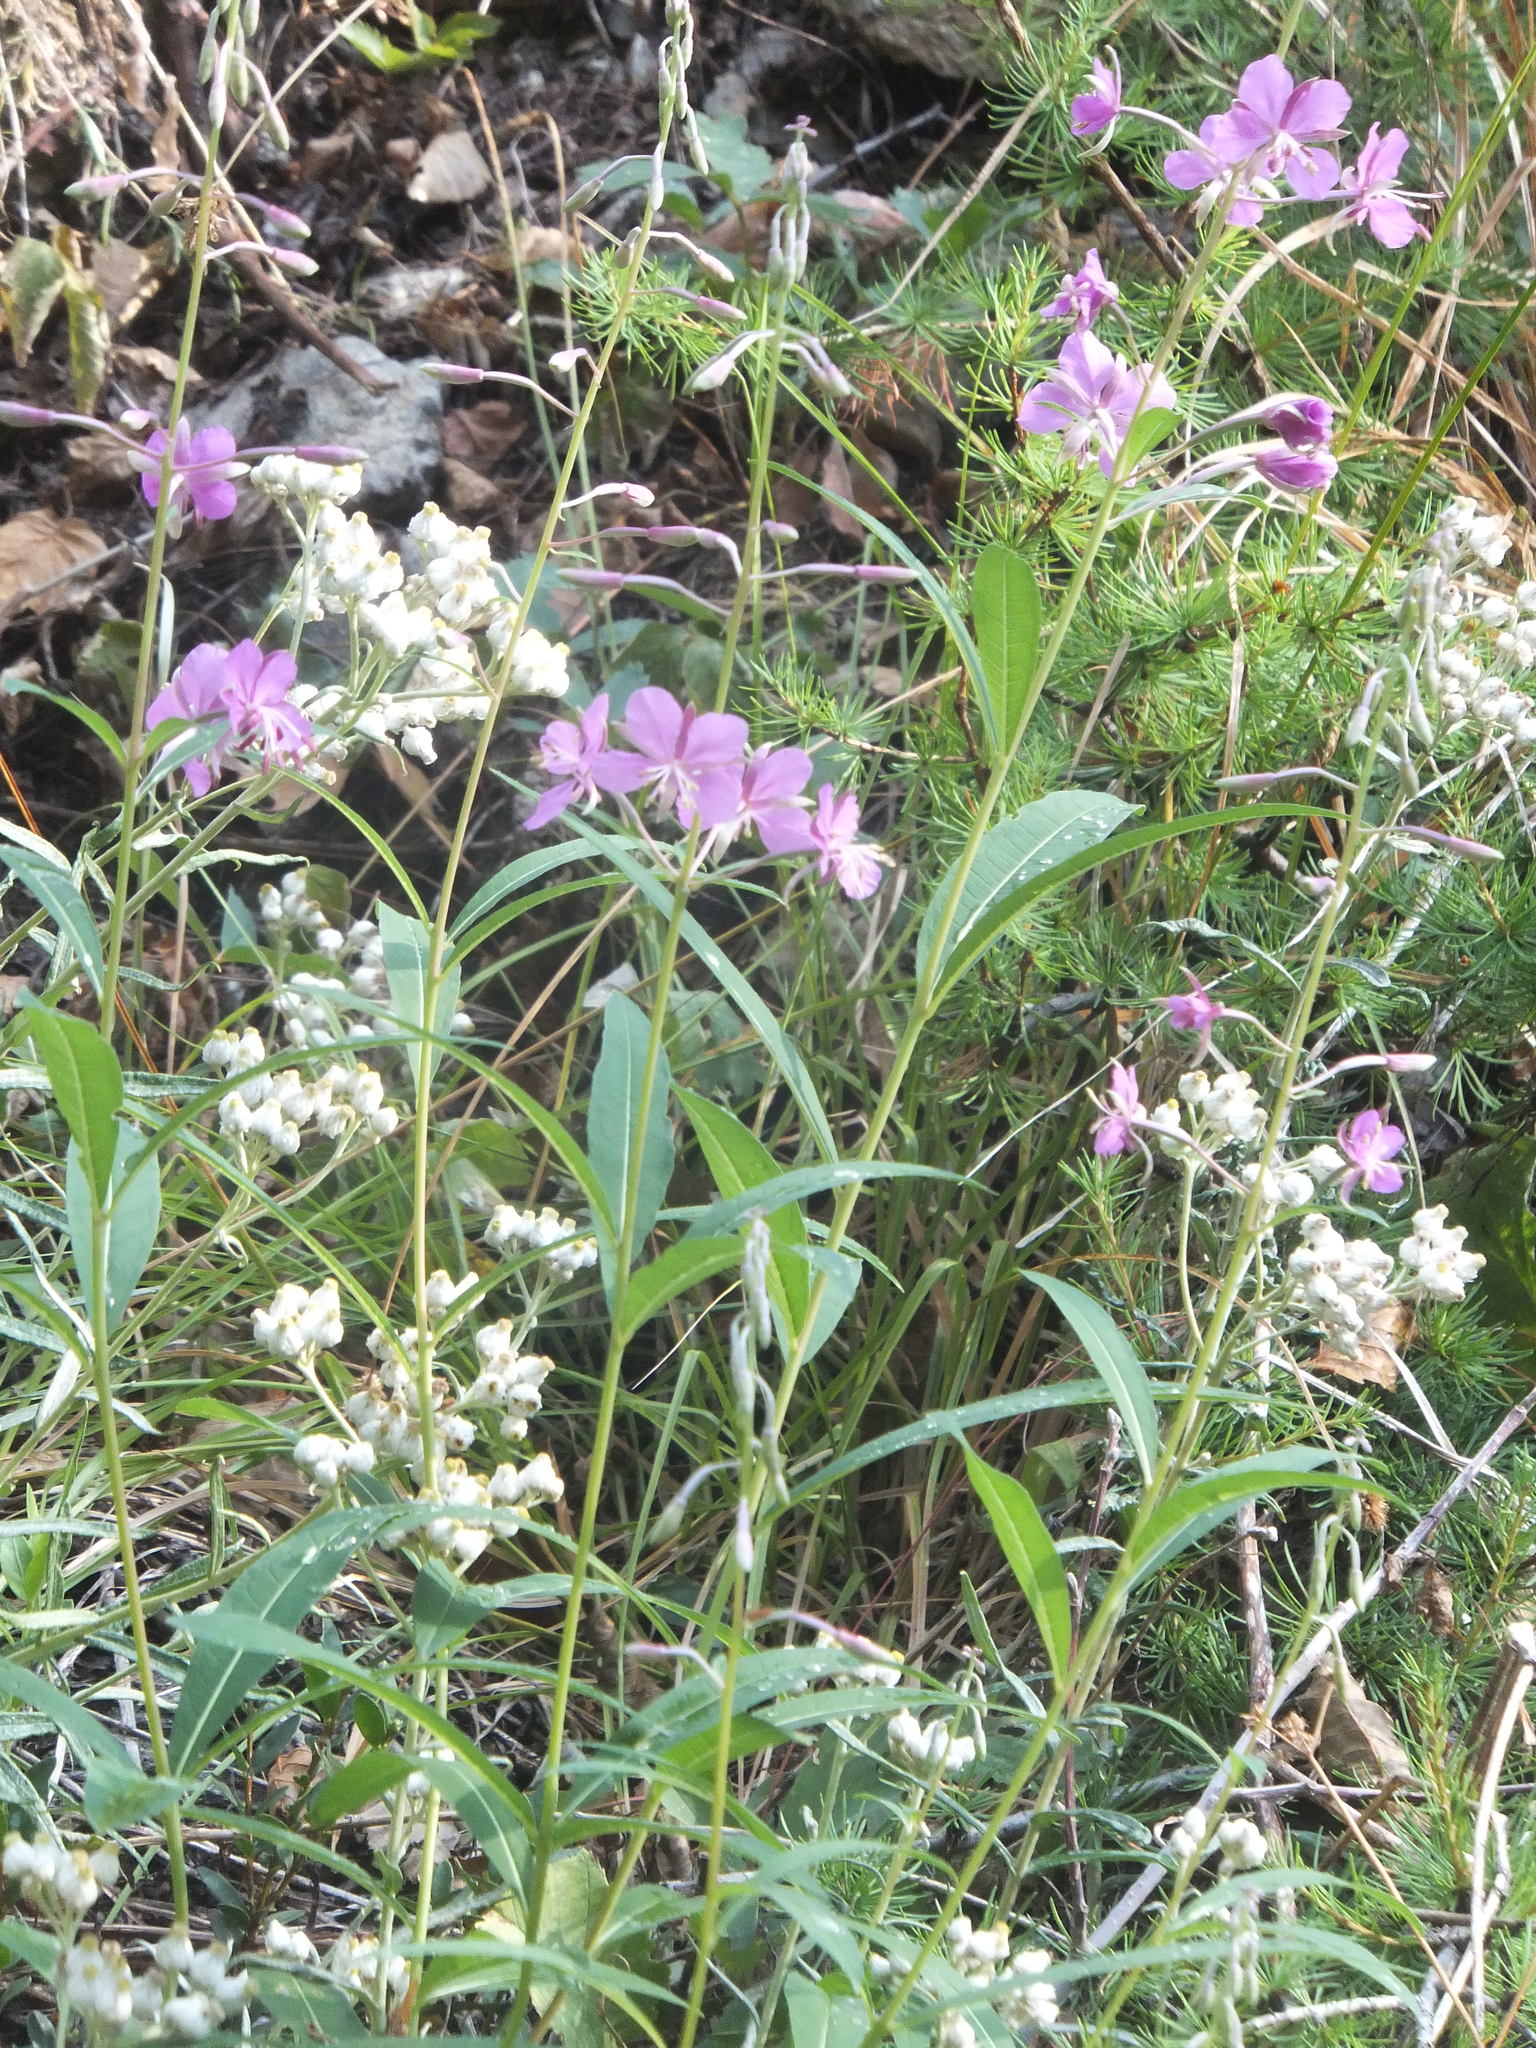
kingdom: Plantae
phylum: Tracheophyta
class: Magnoliopsida
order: Myrtales
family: Onagraceae
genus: Chamaenerion
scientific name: Chamaenerion angustifolium
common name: Fireweed
